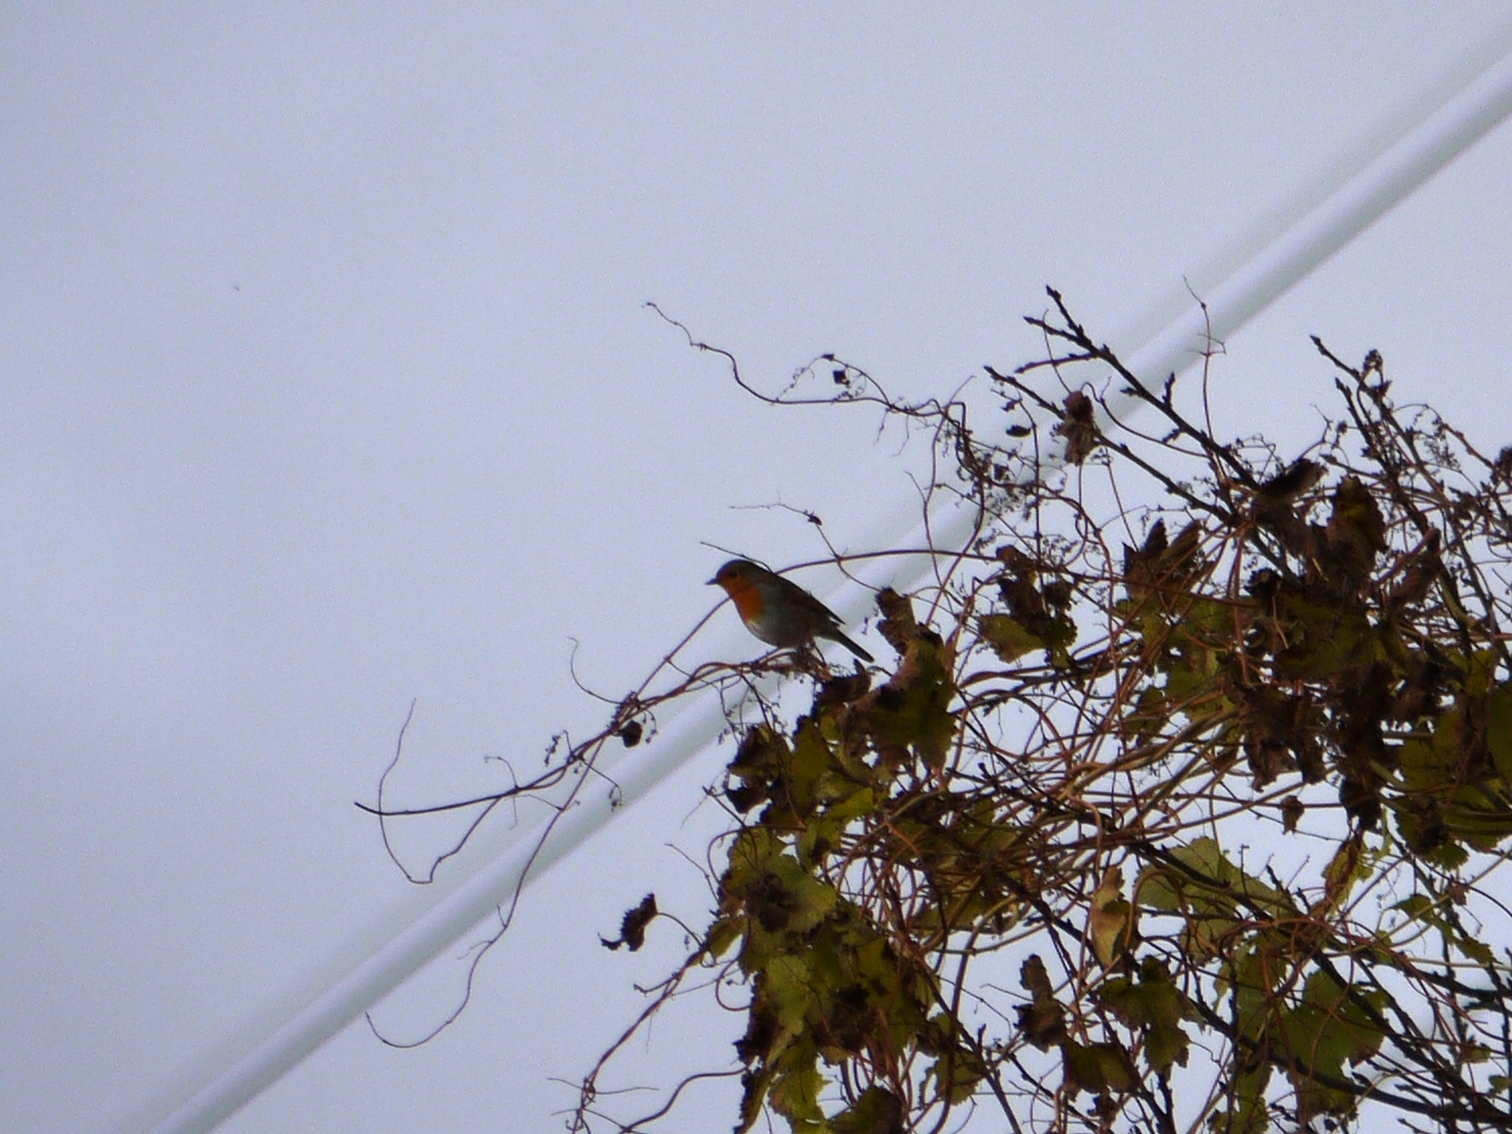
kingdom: Animalia
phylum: Chordata
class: Aves
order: Passeriformes
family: Muscicapidae
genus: Erithacus
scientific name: Erithacus rubecula
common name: European robin
